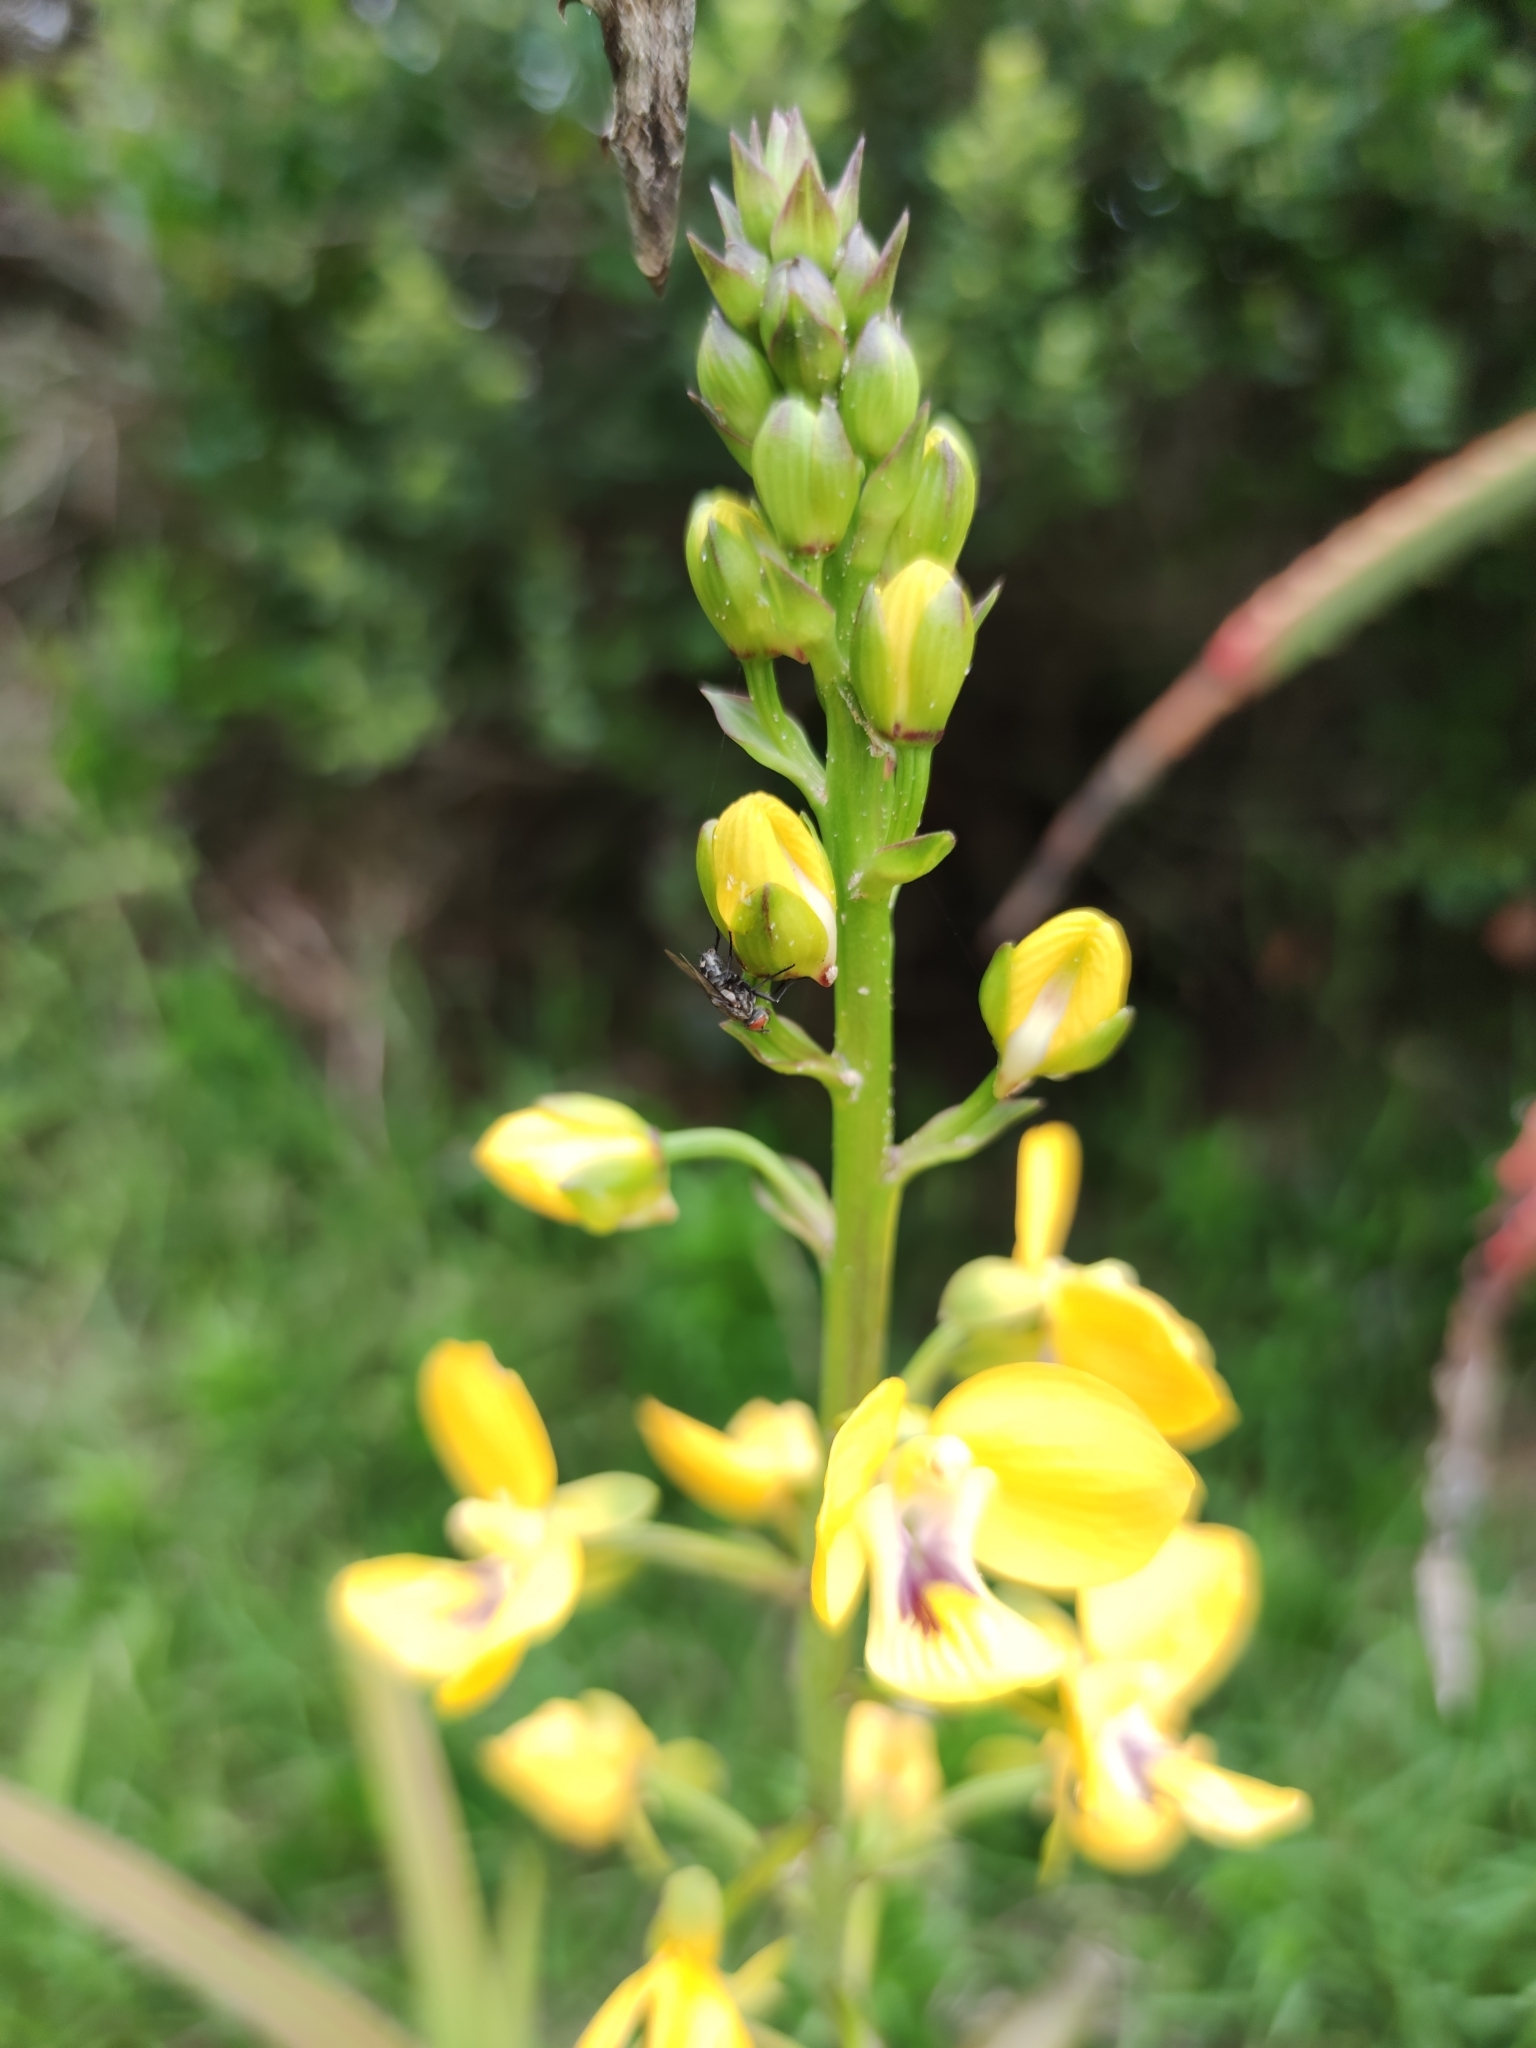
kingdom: Plantae
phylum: Tracheophyta
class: Liliopsida
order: Asparagales
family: Orchidaceae
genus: Eulophia
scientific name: Eulophia speciosa
